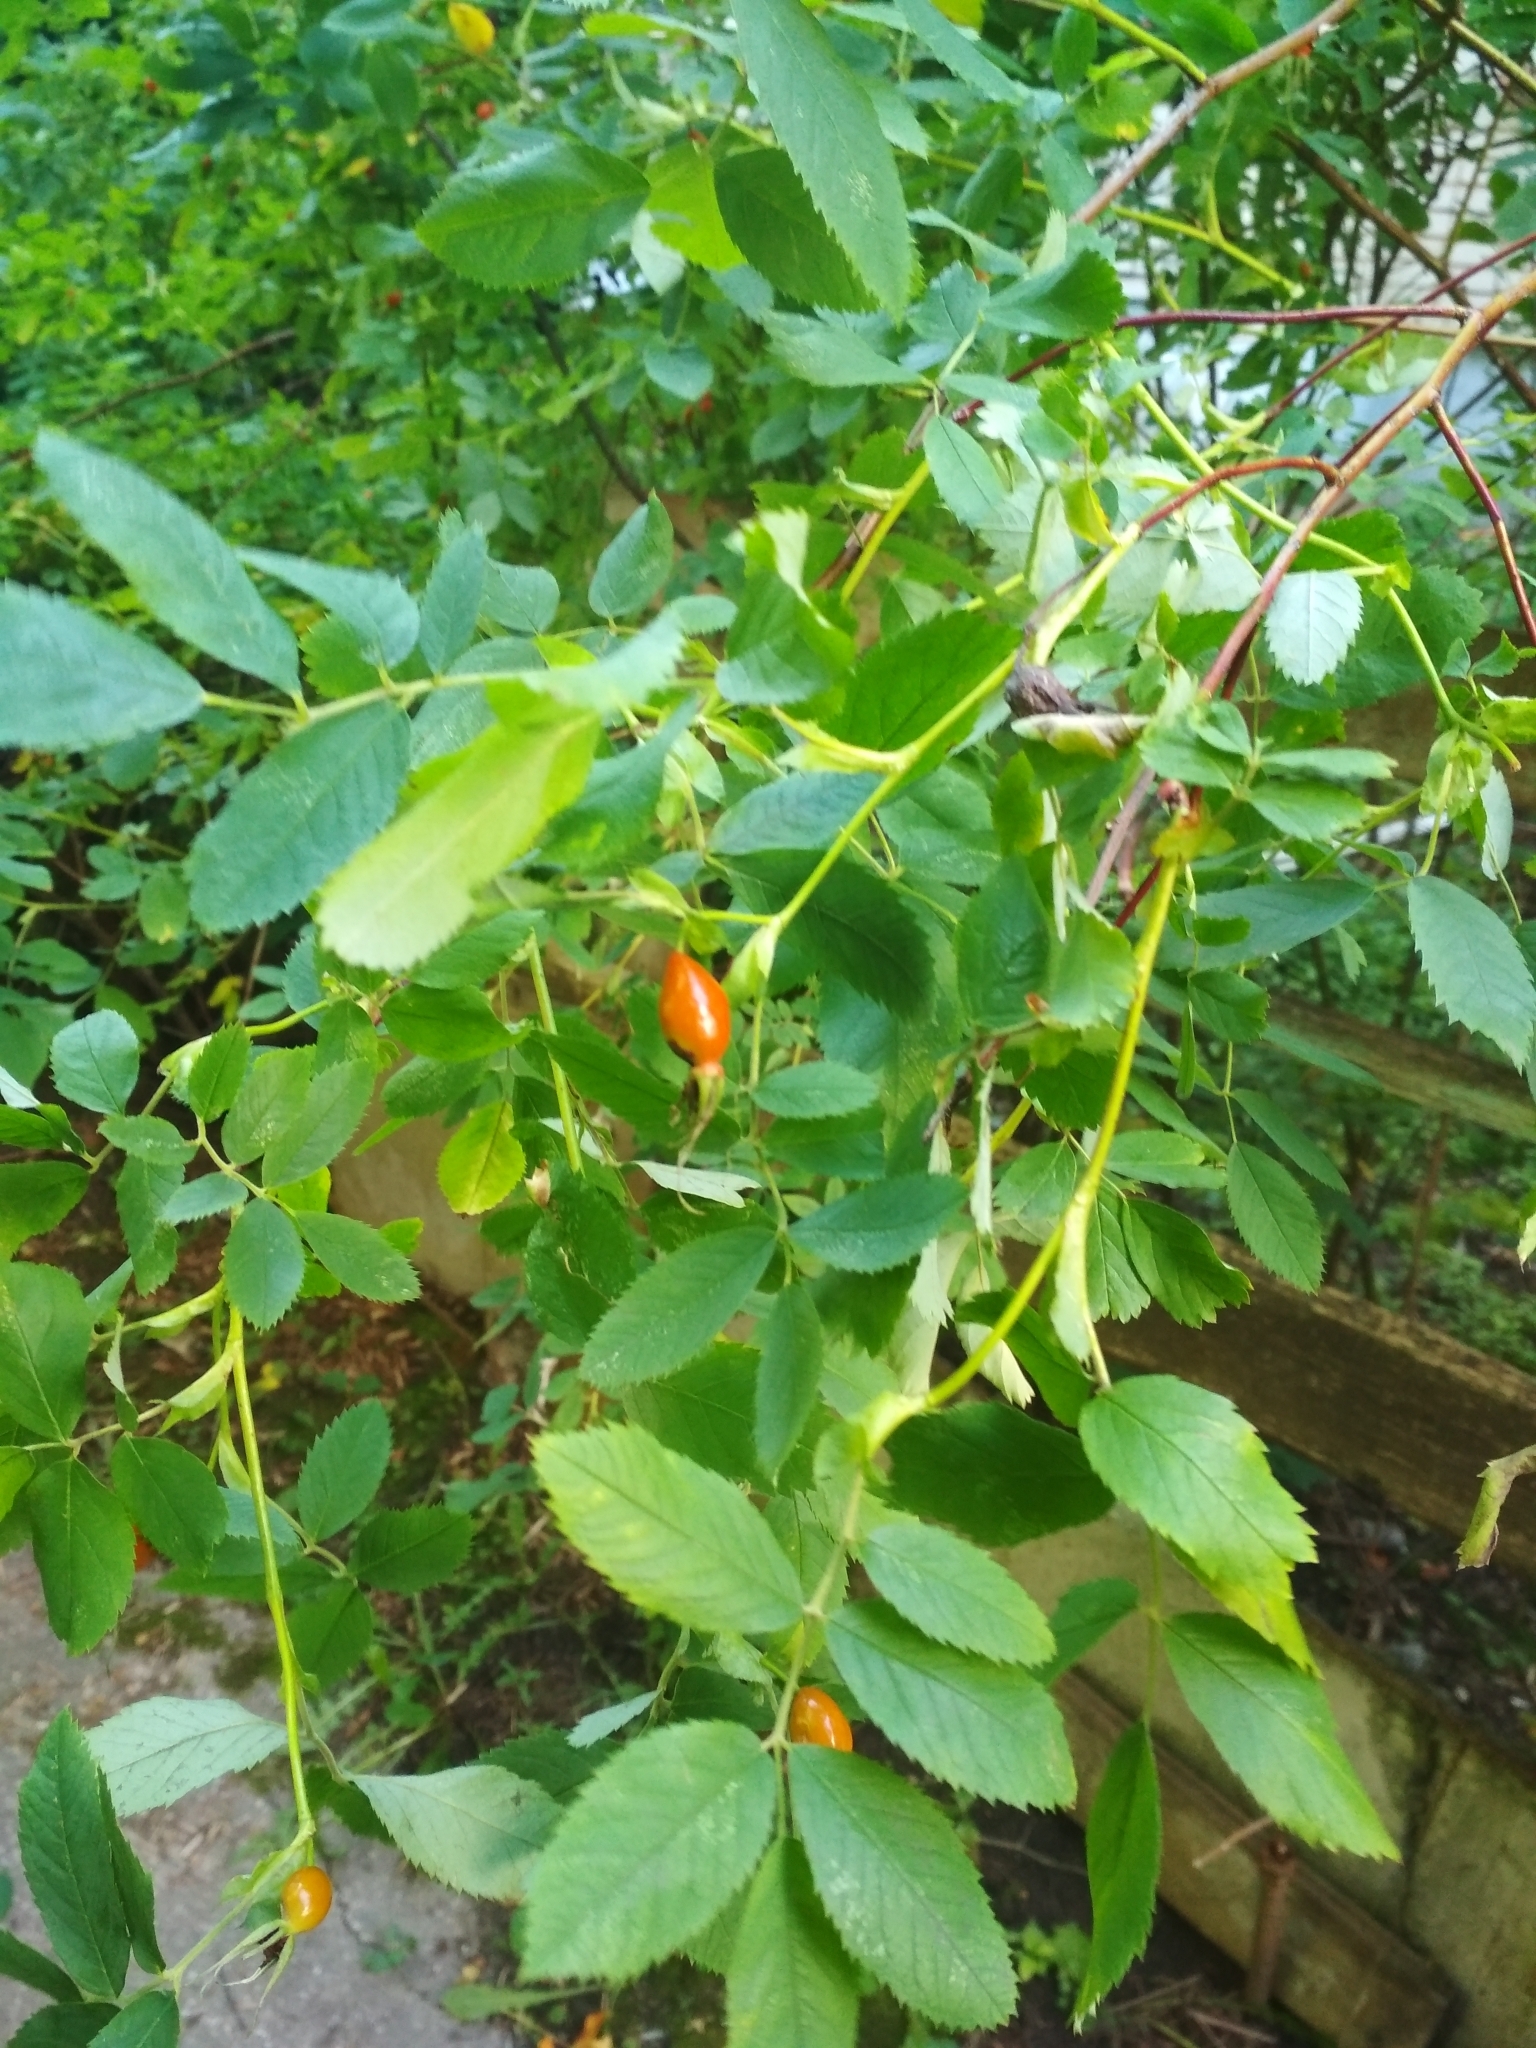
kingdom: Plantae
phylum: Tracheophyta
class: Magnoliopsida
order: Rosales
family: Rosaceae
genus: Rosa
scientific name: Rosa
